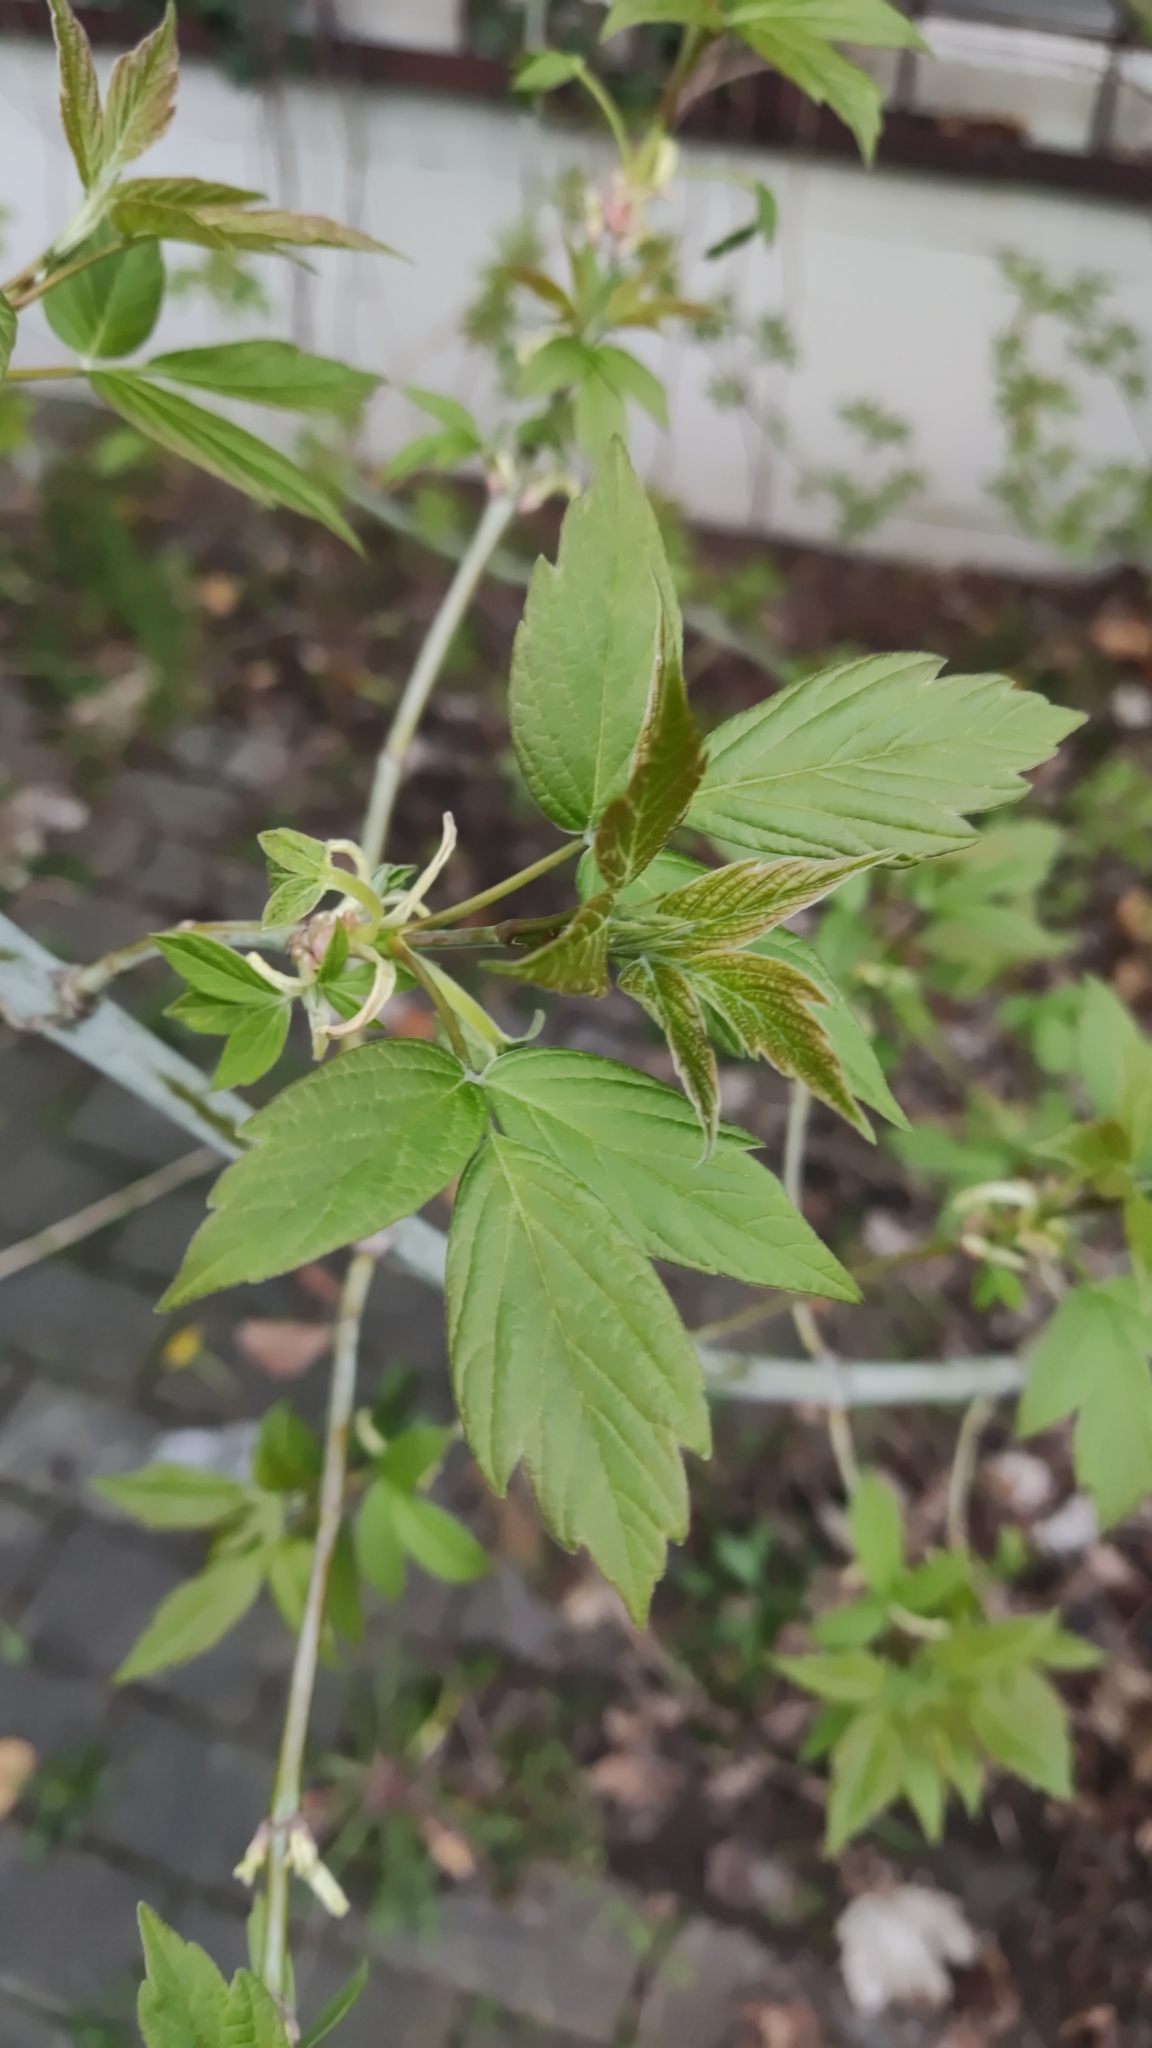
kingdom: Plantae
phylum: Tracheophyta
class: Magnoliopsida
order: Sapindales
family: Sapindaceae
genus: Acer
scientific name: Acer negundo
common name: Ashleaf maple
